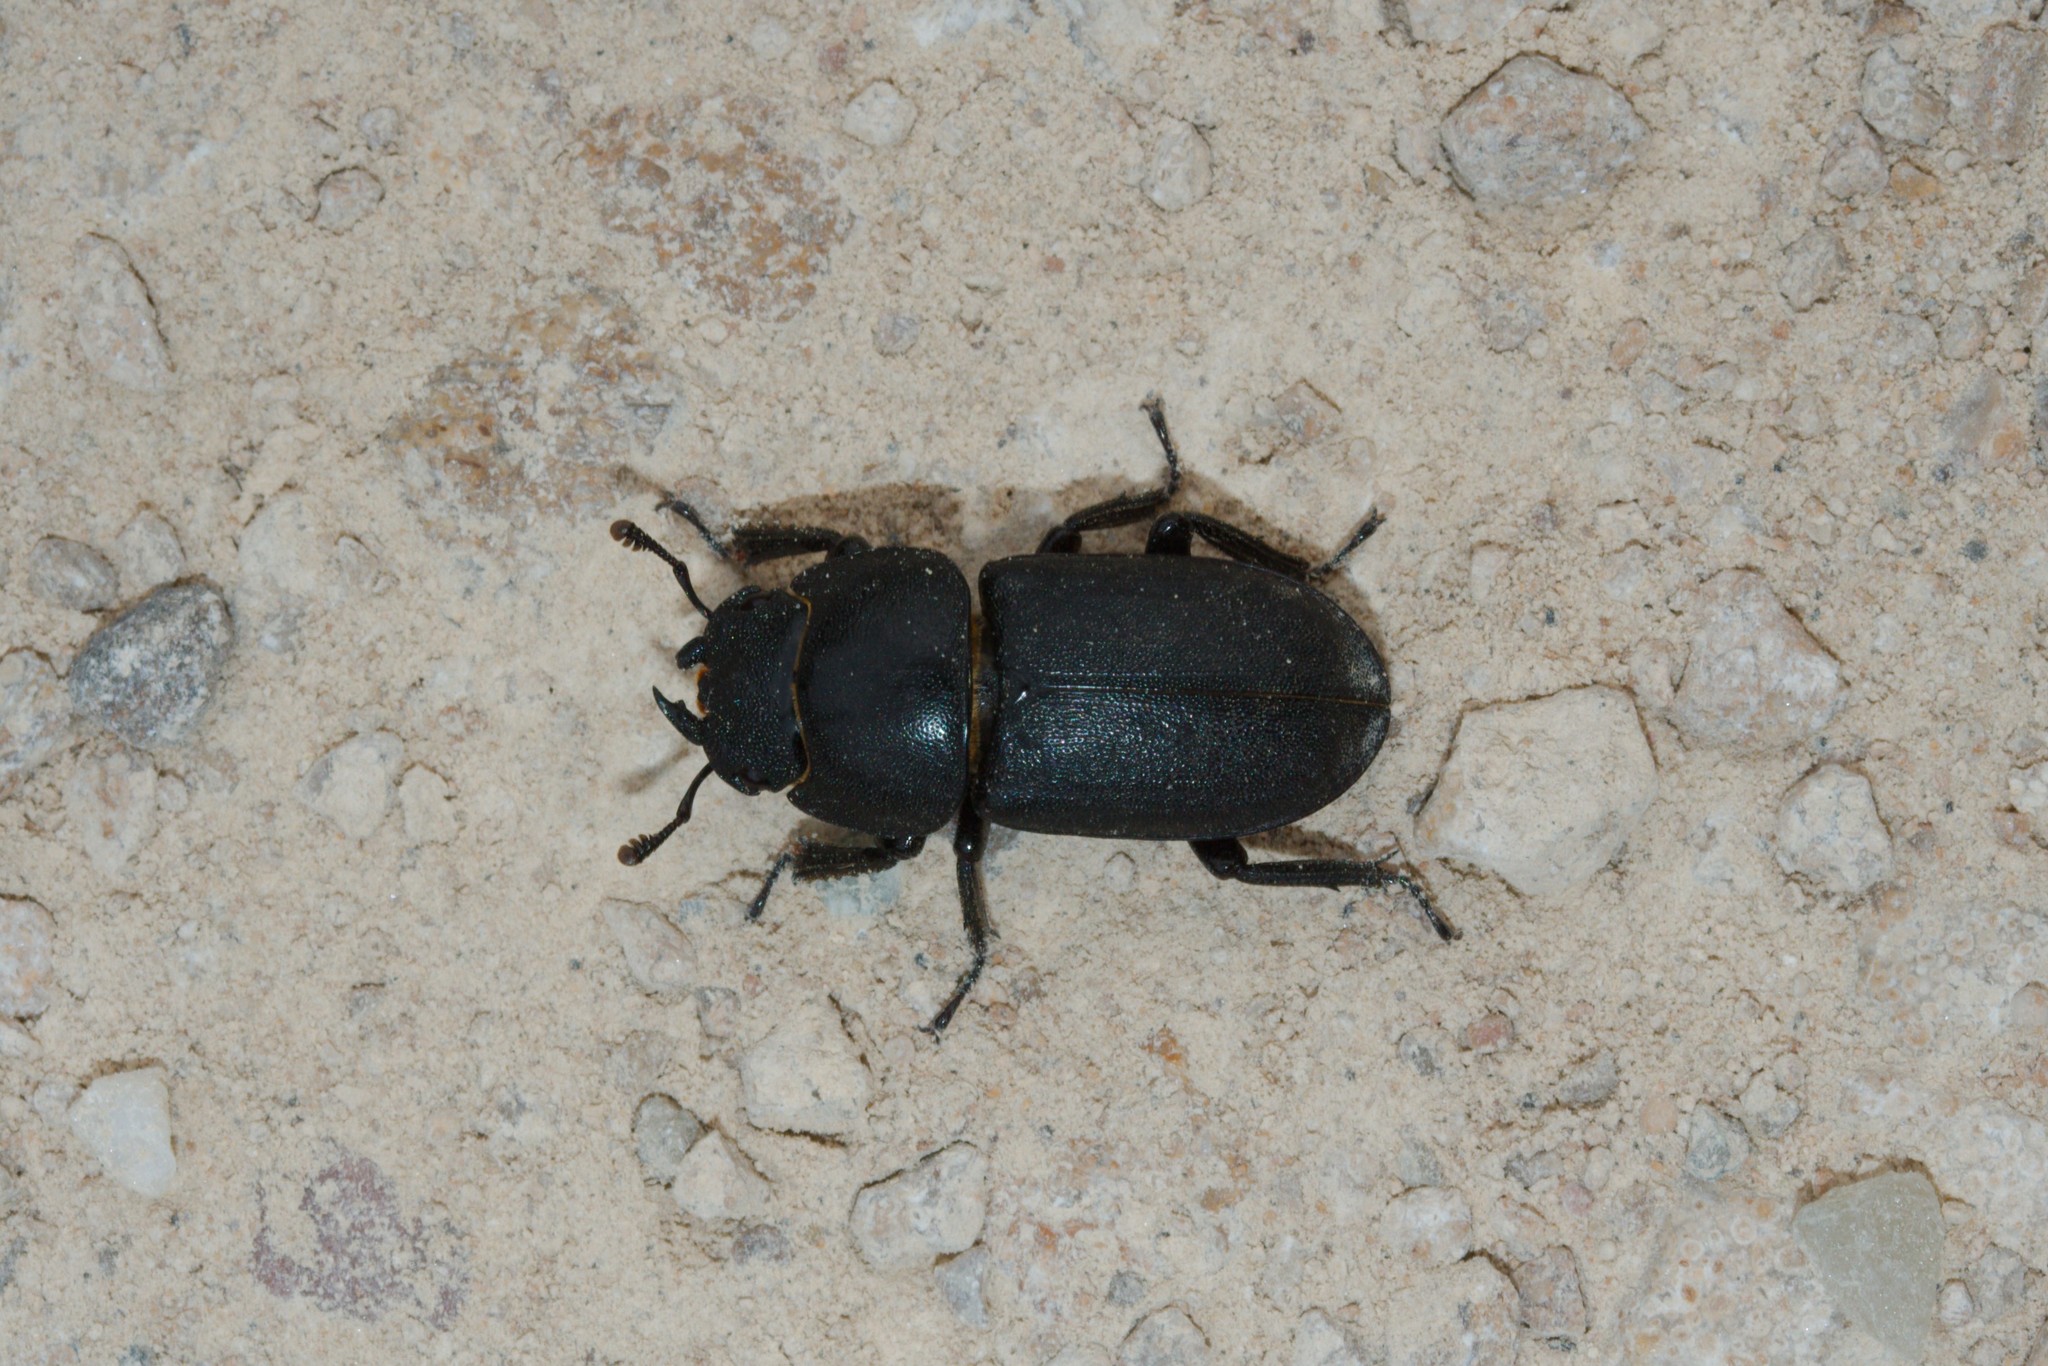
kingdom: Animalia
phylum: Arthropoda
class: Insecta
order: Coleoptera
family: Lucanidae
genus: Dorcus
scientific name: Dorcus parallelipipedus
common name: Lesser stag beetle
